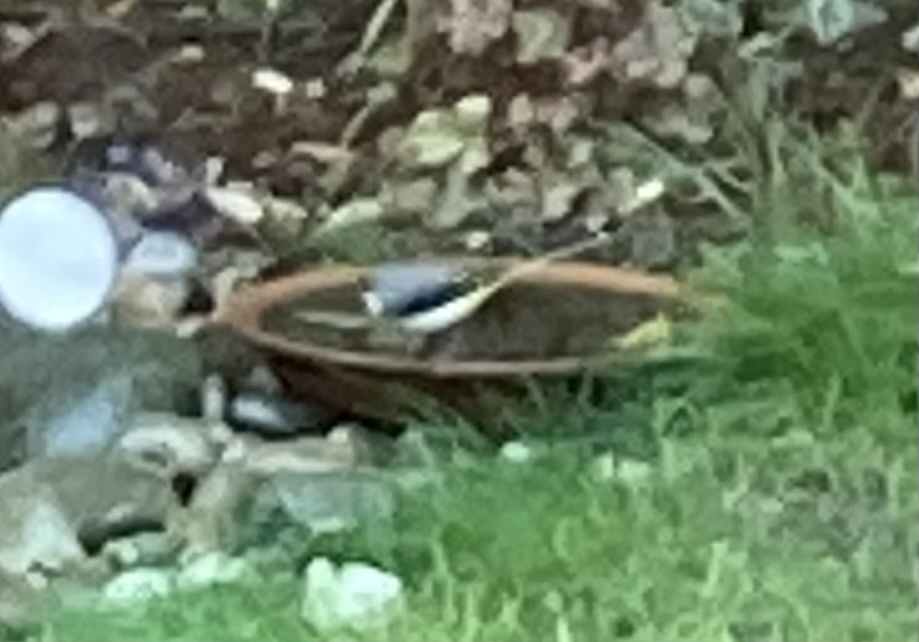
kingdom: Animalia
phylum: Chordata
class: Aves
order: Passeriformes
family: Motacillidae
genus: Motacilla
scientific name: Motacilla cinerea
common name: Grey wagtail
